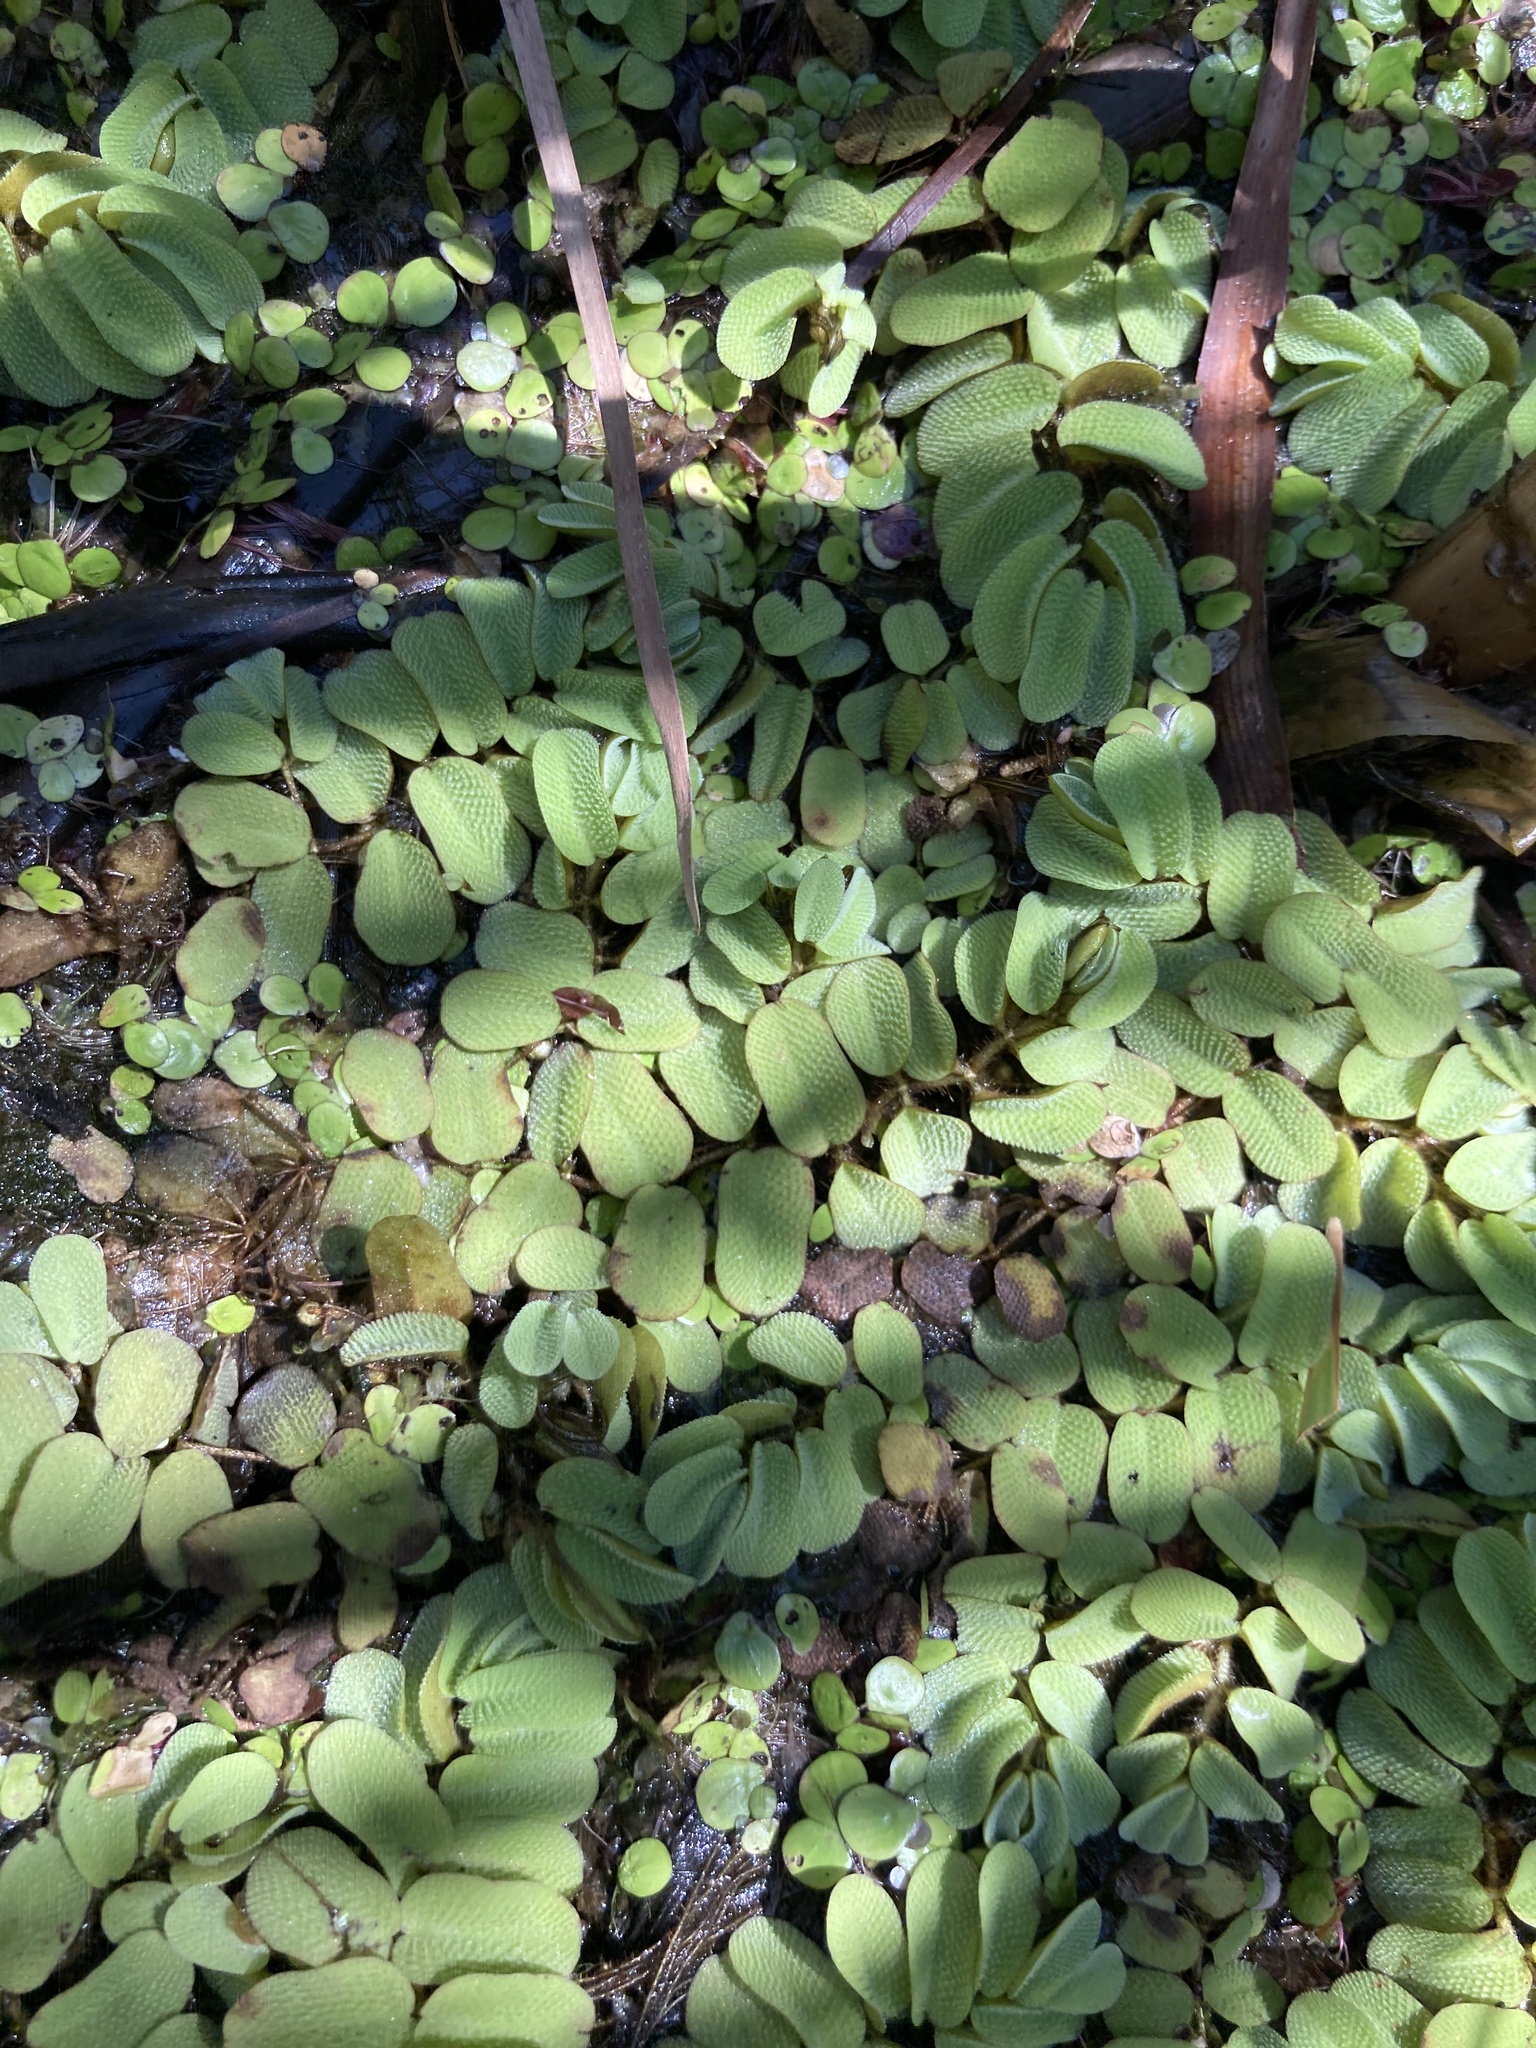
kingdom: Plantae
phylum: Tracheophyta
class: Polypodiopsida
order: Salviniales
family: Salviniaceae
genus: Salvinia
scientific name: Salvinia natans
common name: Floating fern
